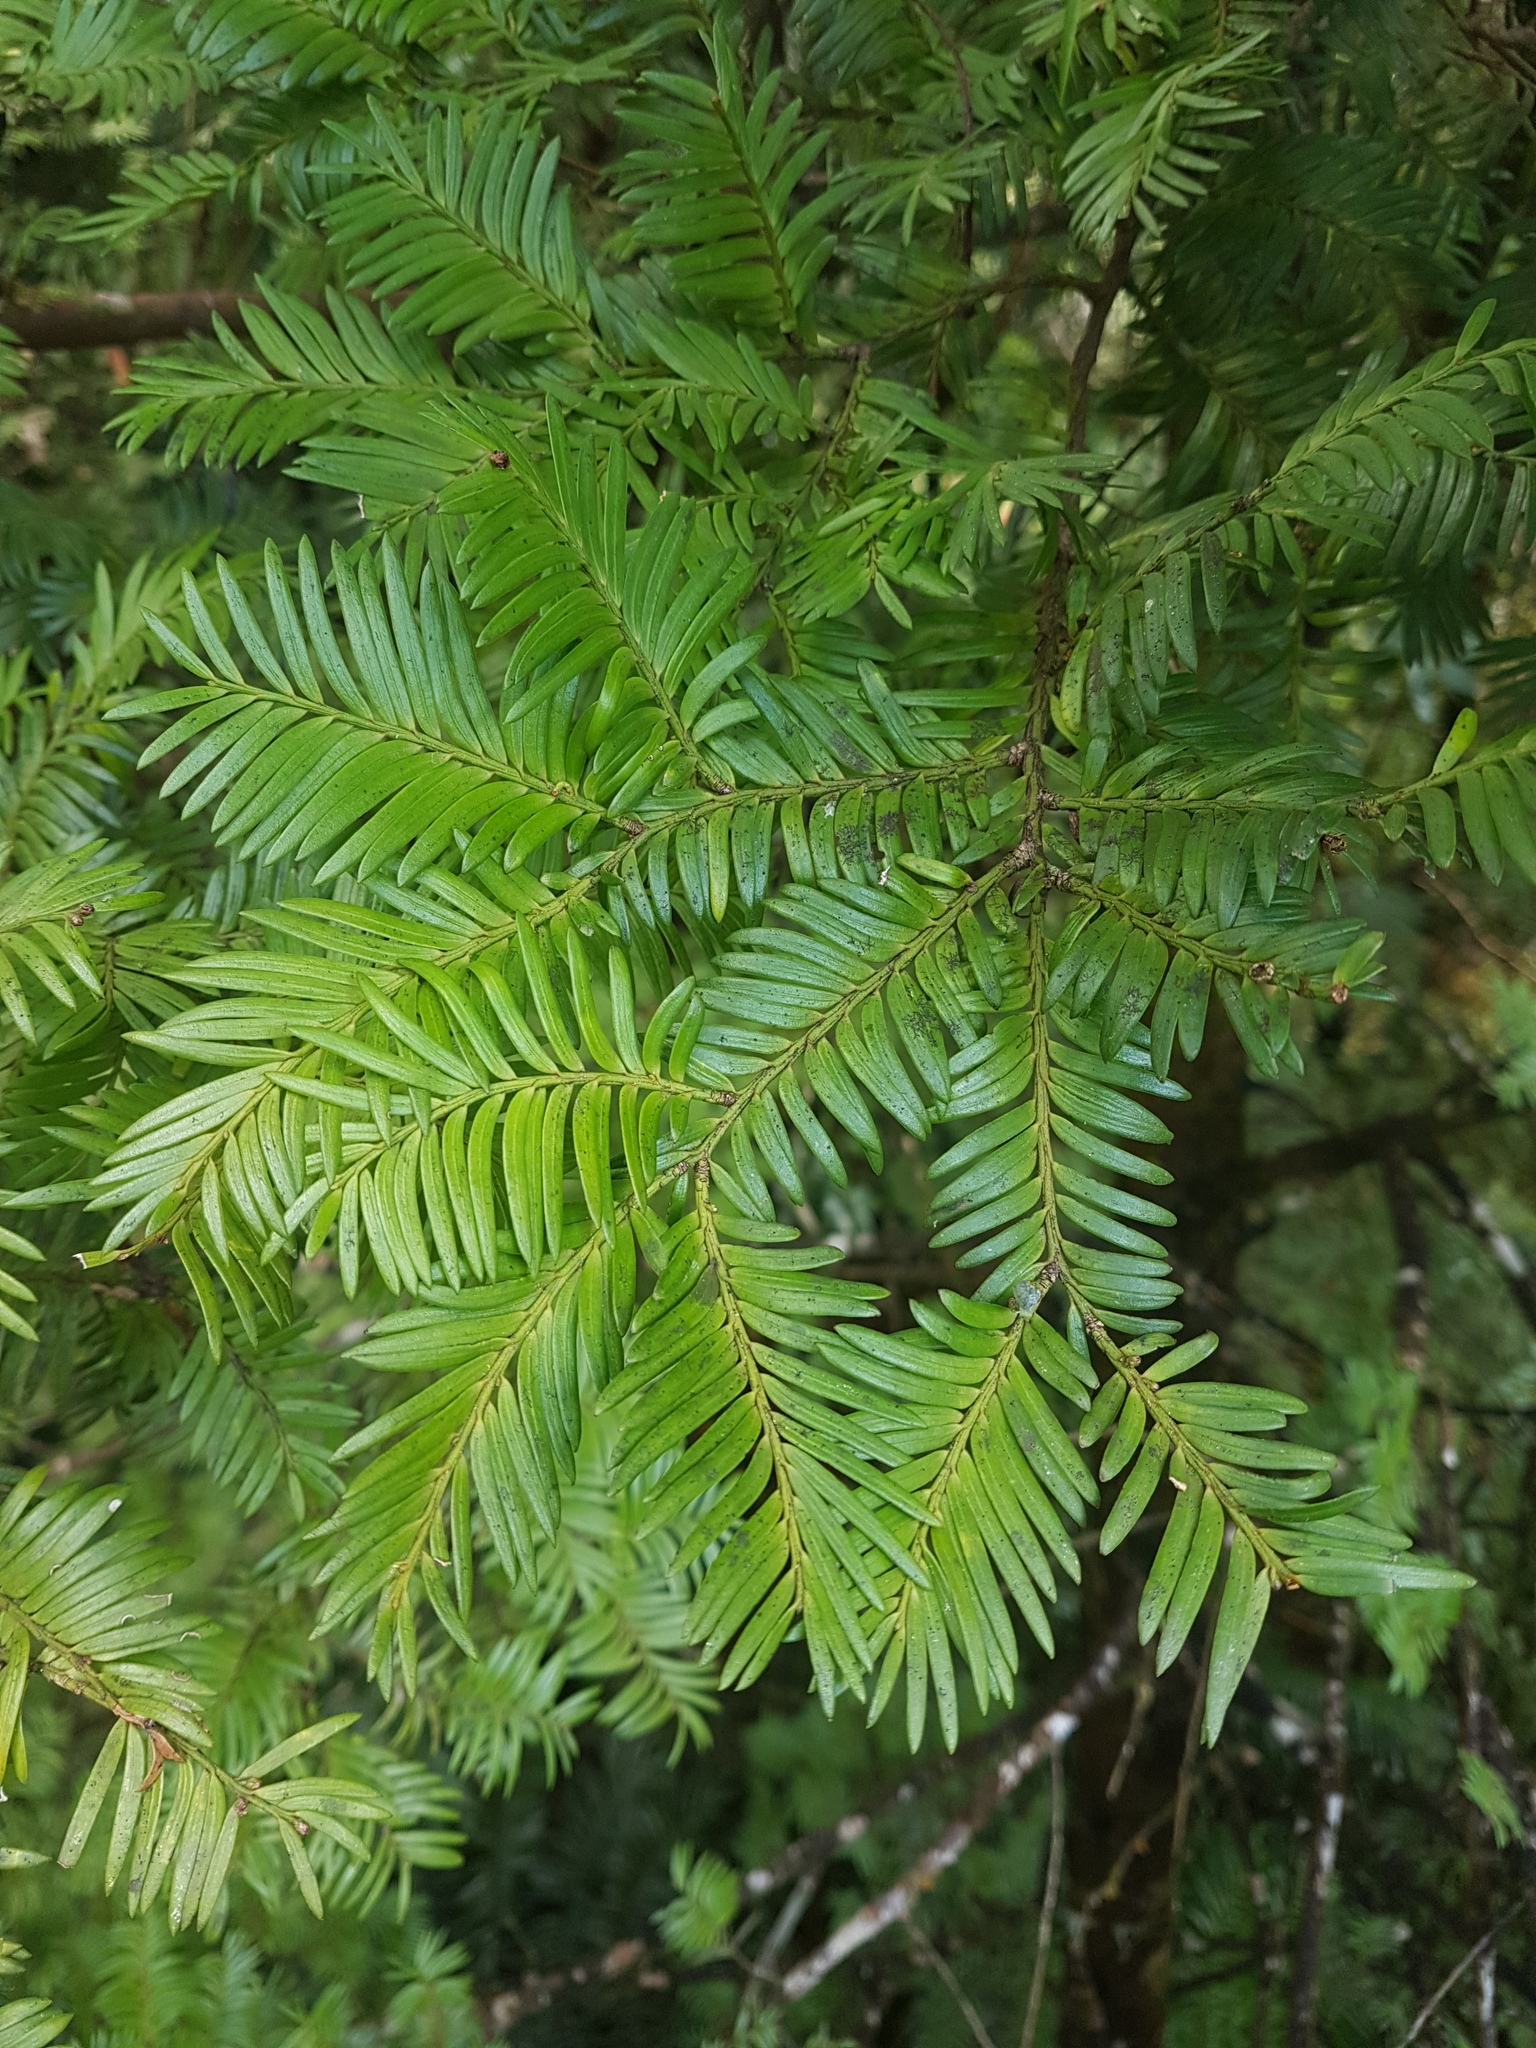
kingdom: Plantae
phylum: Tracheophyta
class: Pinopsida
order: Pinales
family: Podocarpaceae
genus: Prumnopitys
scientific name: Prumnopitys ferruginea
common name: Brown pine
